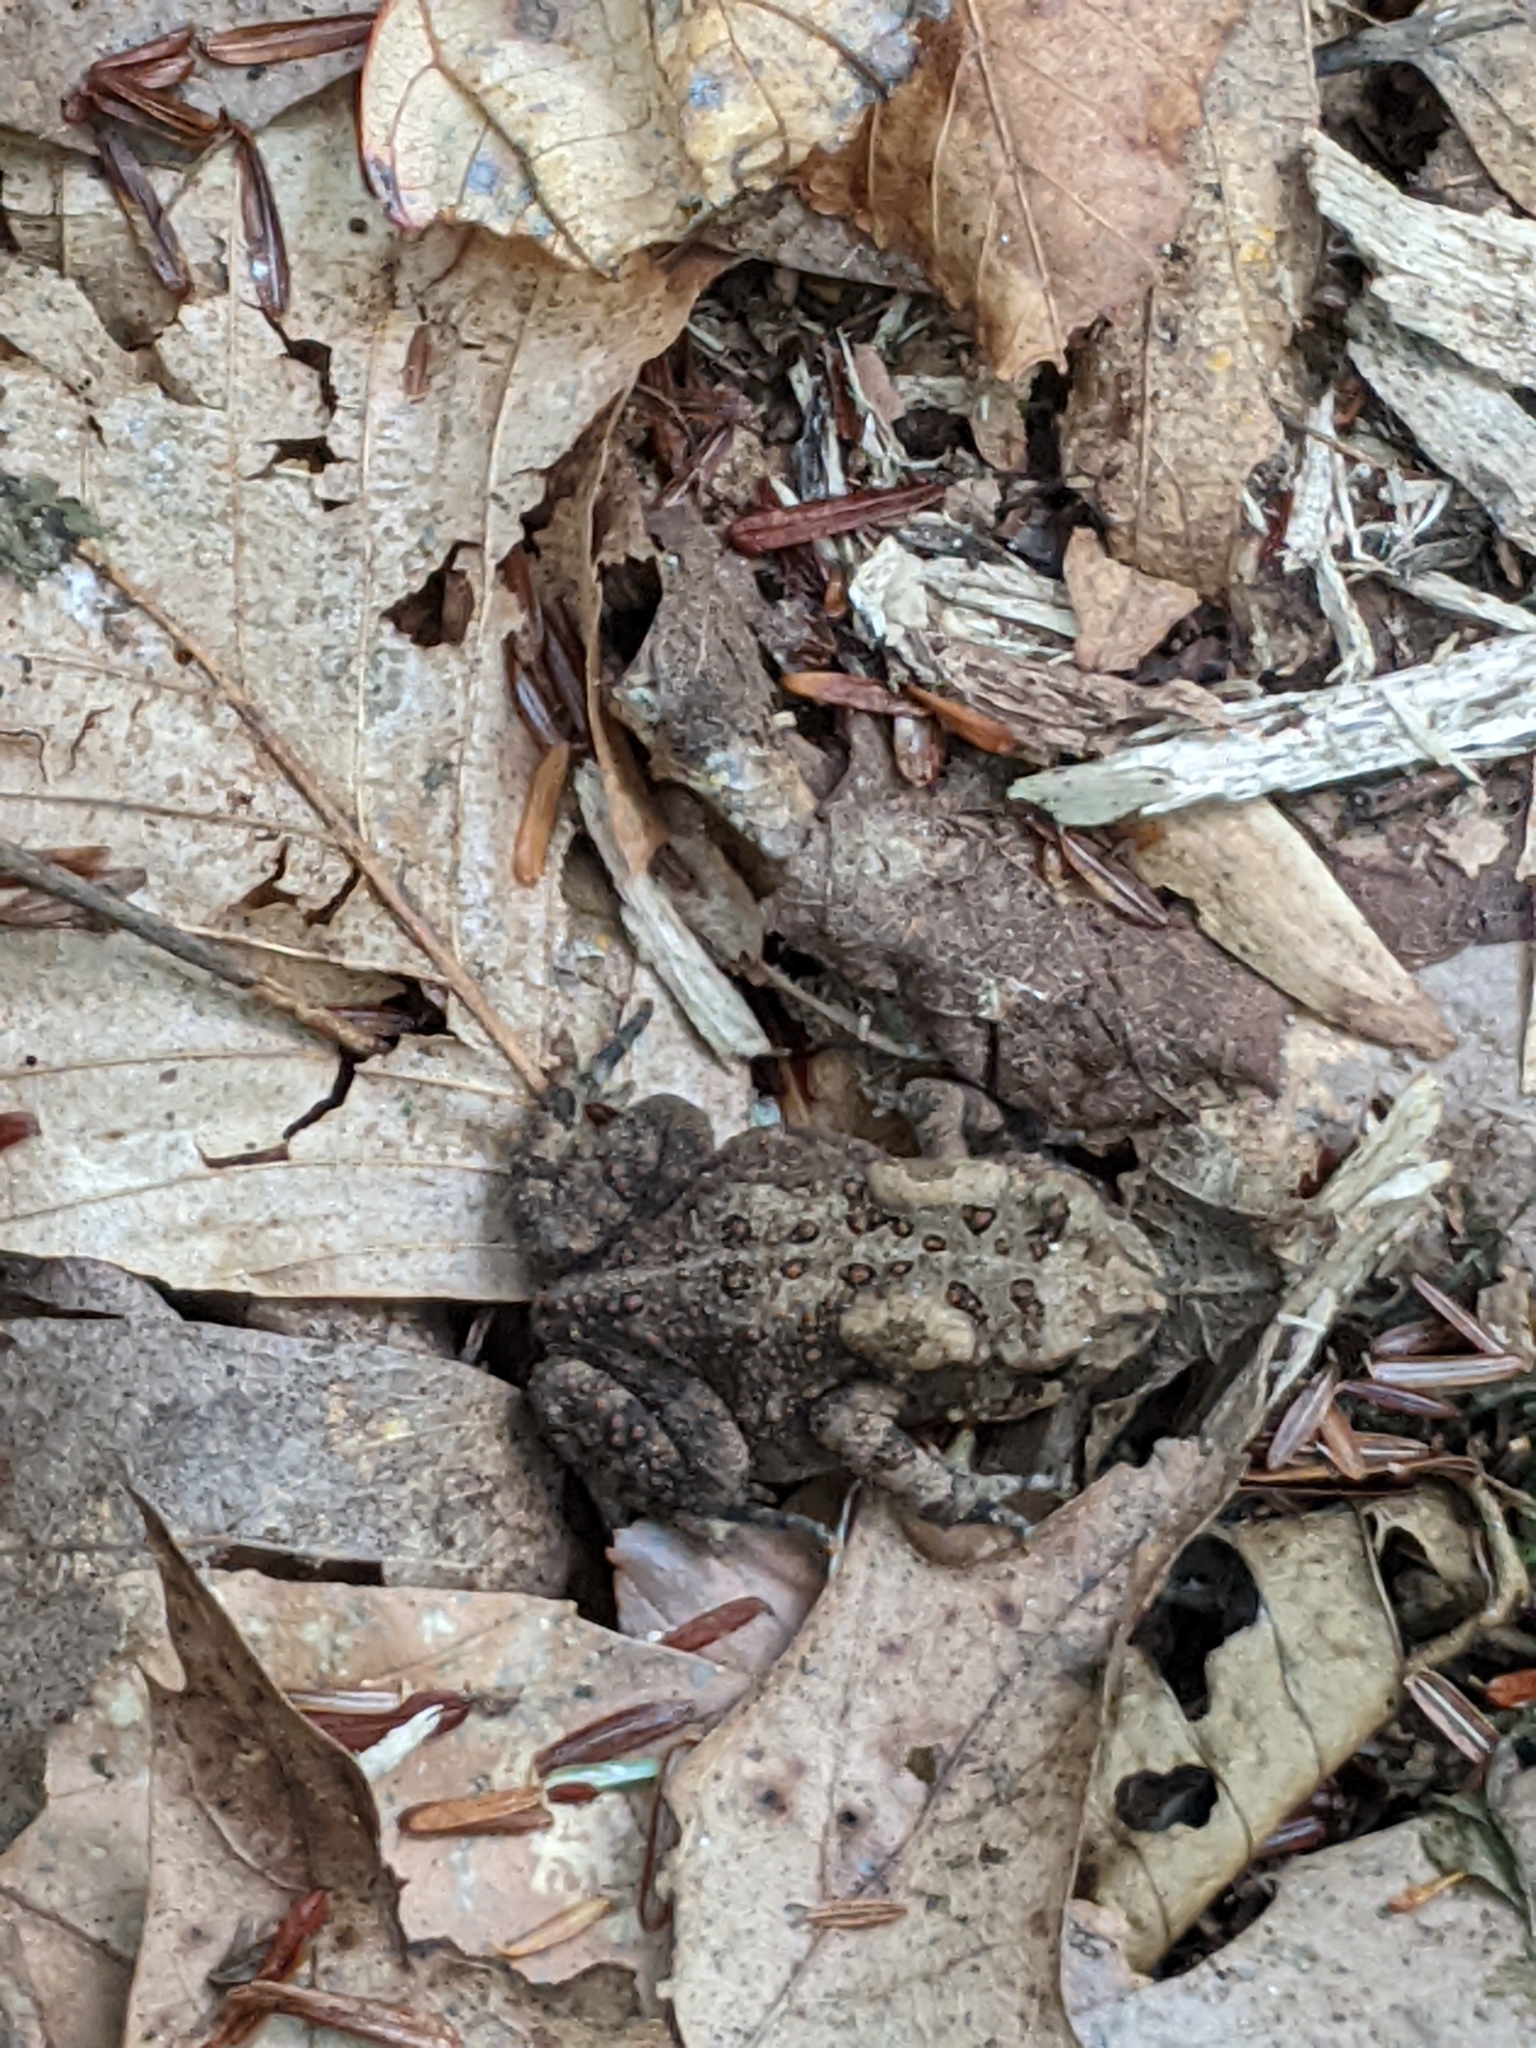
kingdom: Animalia
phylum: Chordata
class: Amphibia
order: Anura
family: Bufonidae
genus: Anaxyrus
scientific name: Anaxyrus americanus
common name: American toad
